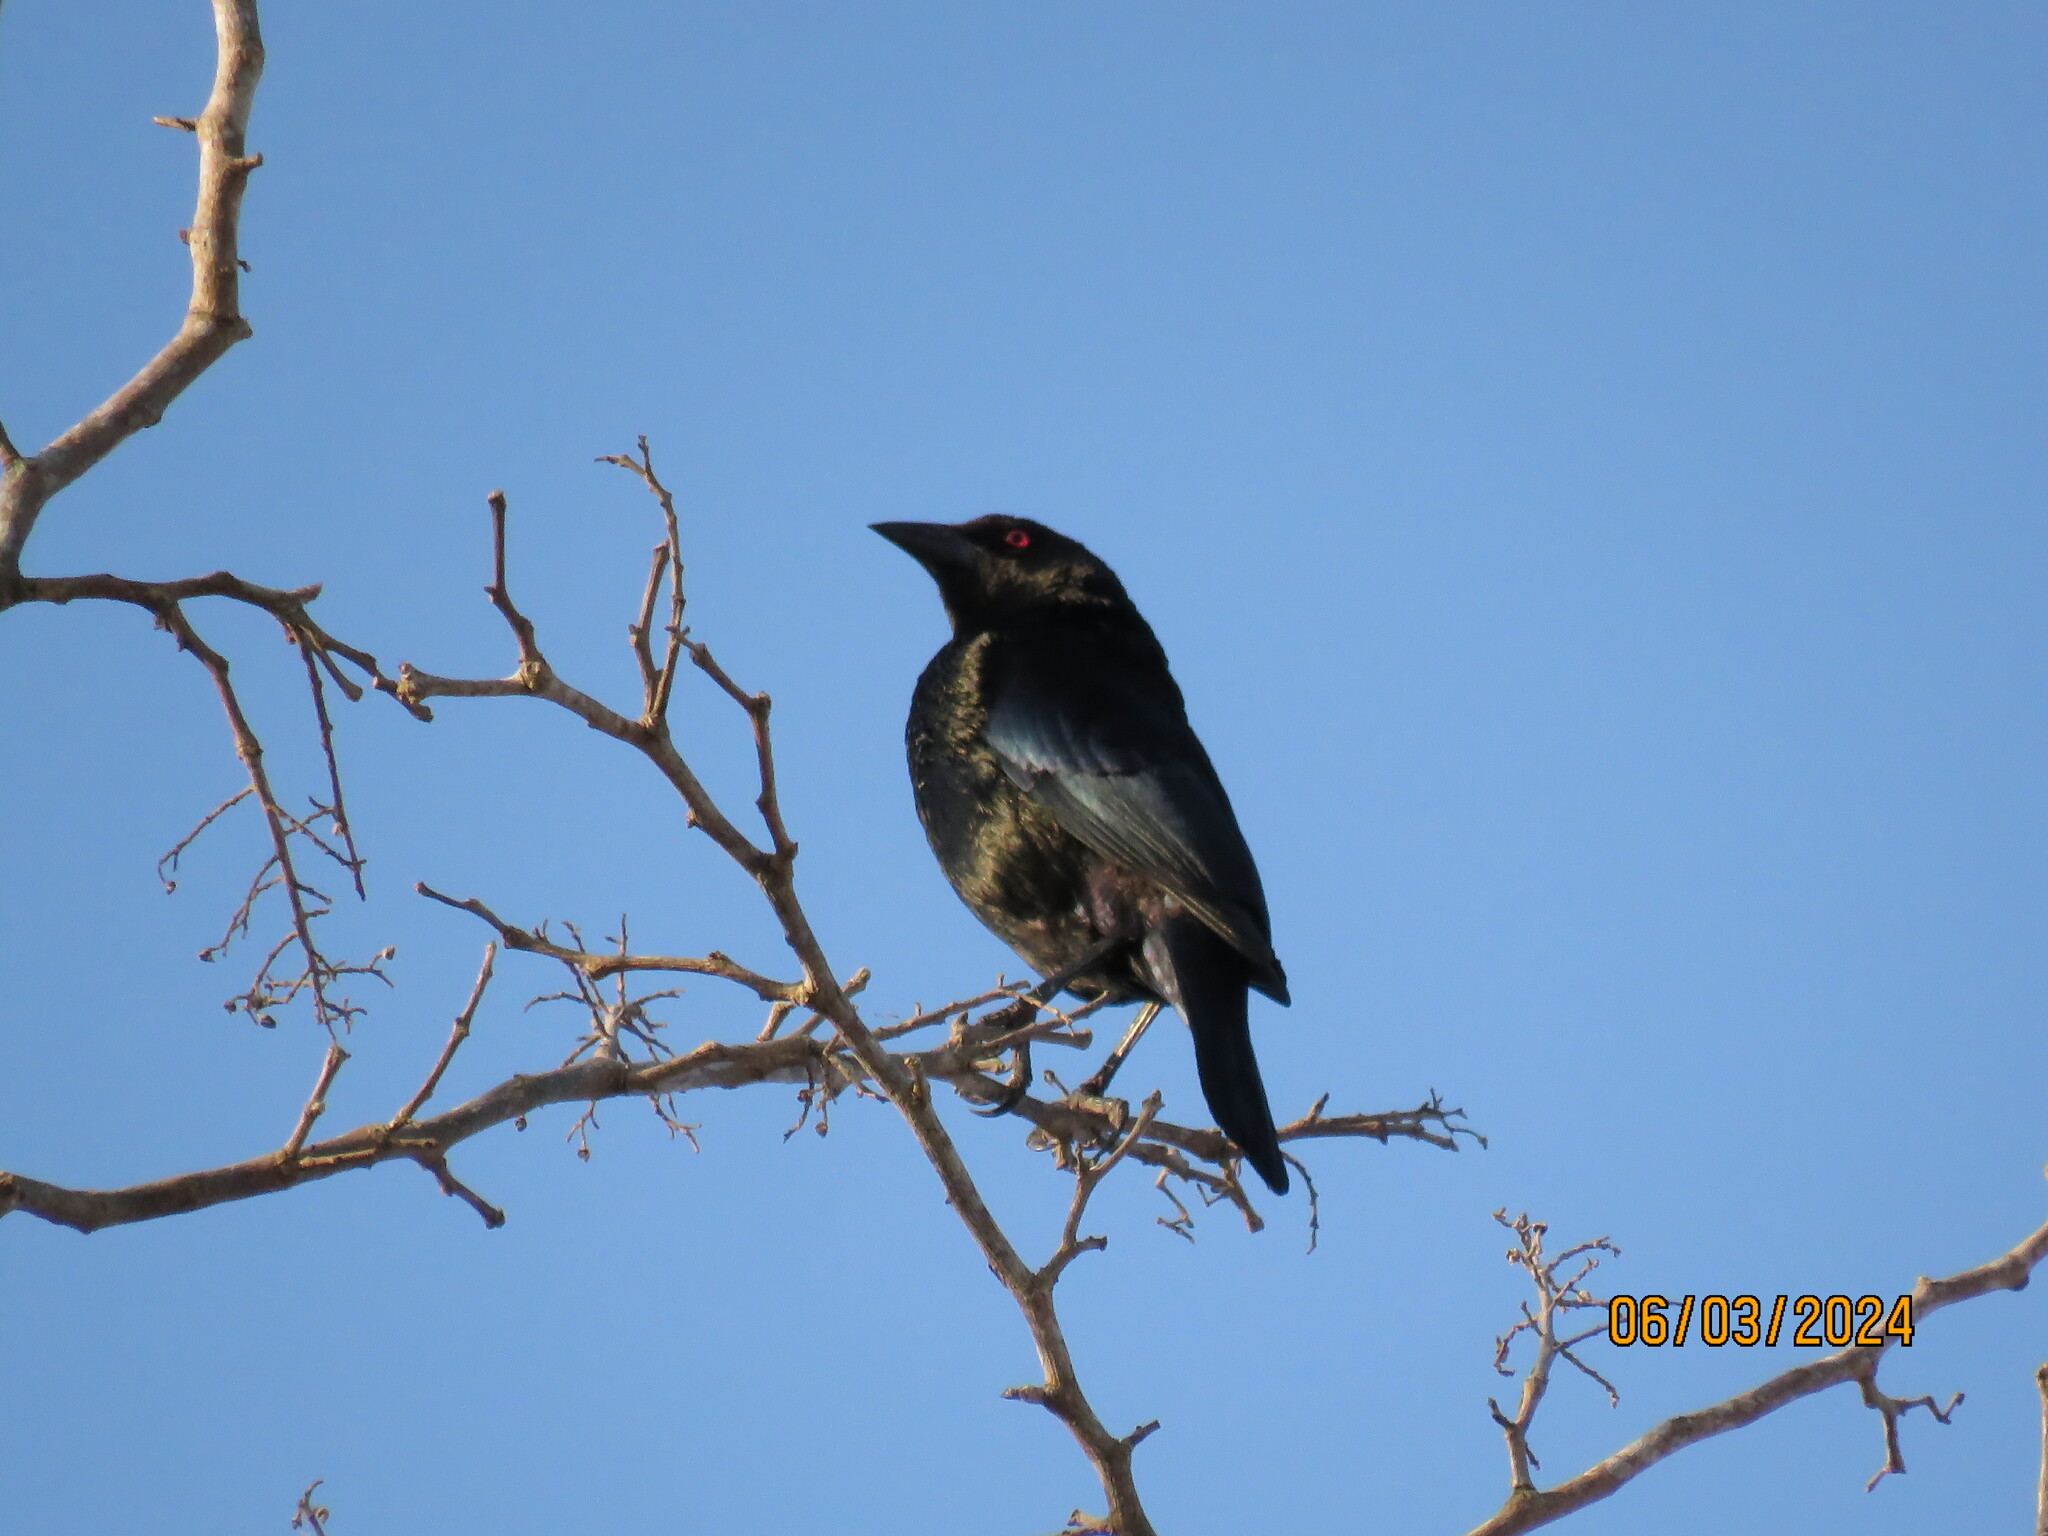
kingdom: Animalia
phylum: Chordata
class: Aves
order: Passeriformes
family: Icteridae
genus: Molothrus
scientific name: Molothrus aeneus
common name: Bronzed cowbird
